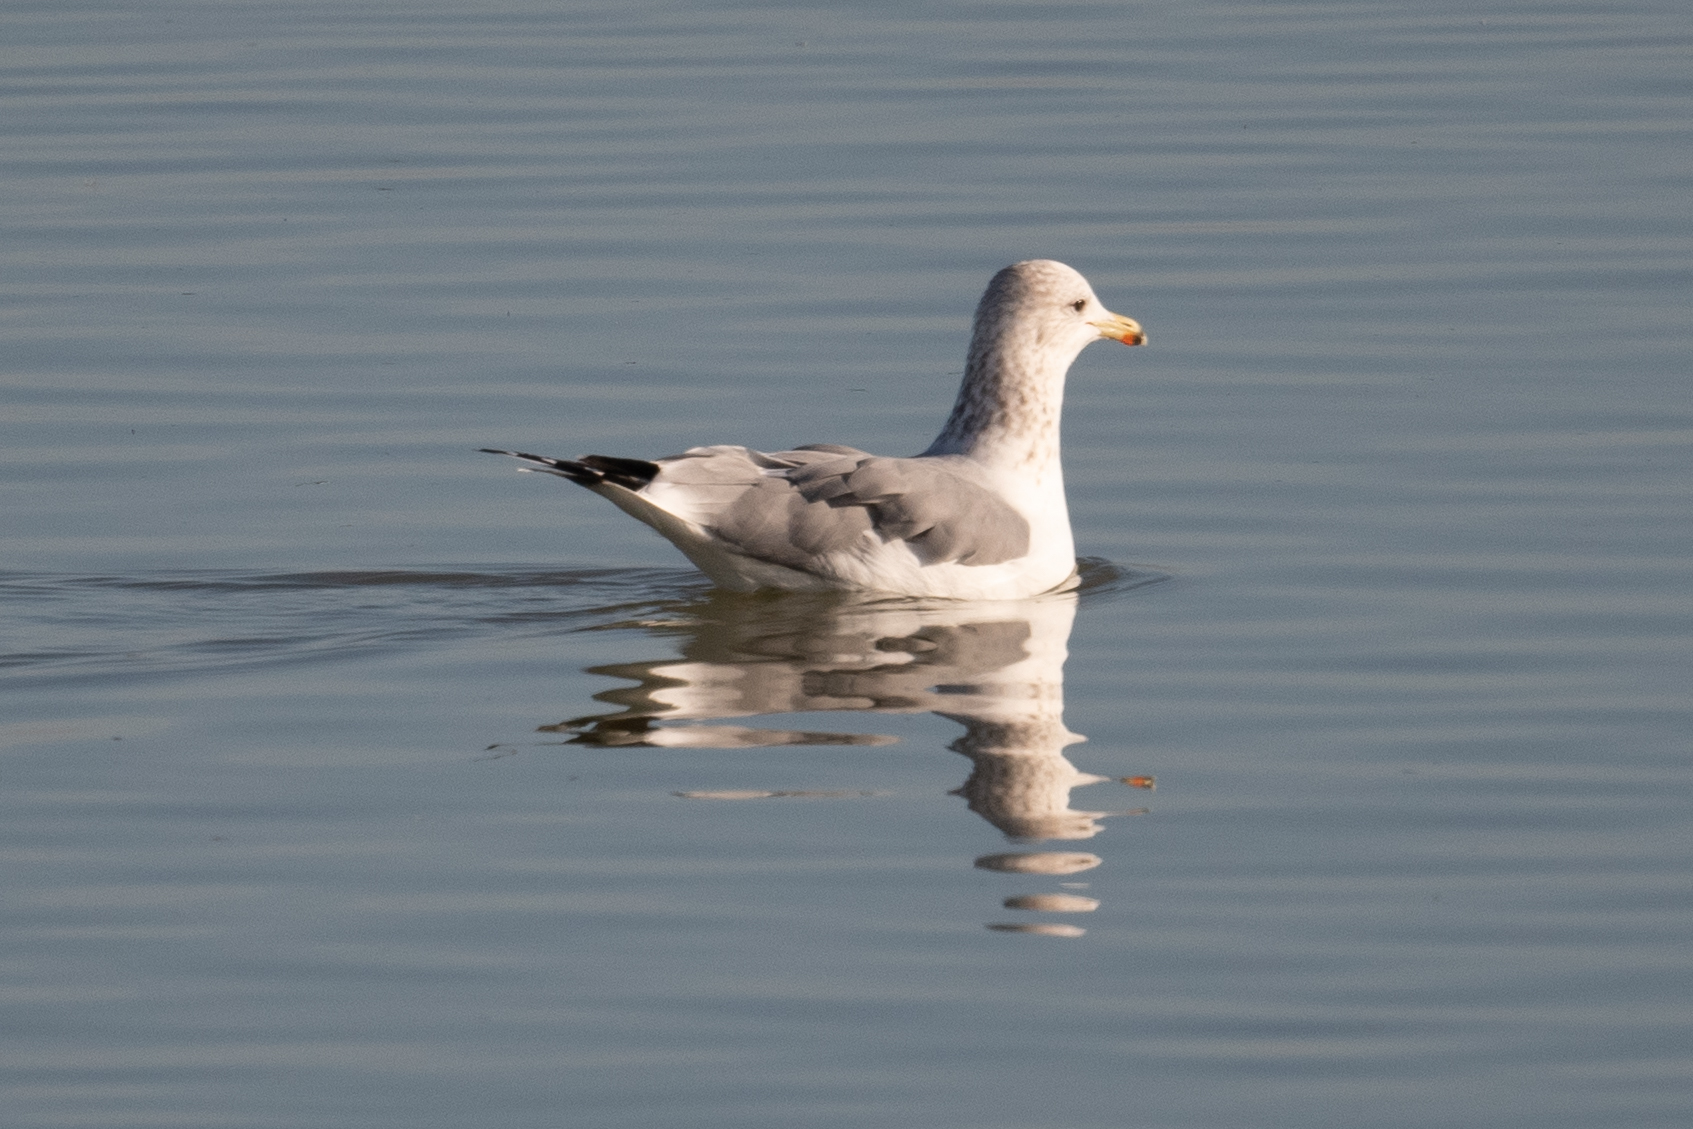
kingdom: Animalia
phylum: Chordata
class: Aves
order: Charadriiformes
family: Laridae
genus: Larus
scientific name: Larus californicus
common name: California gull
